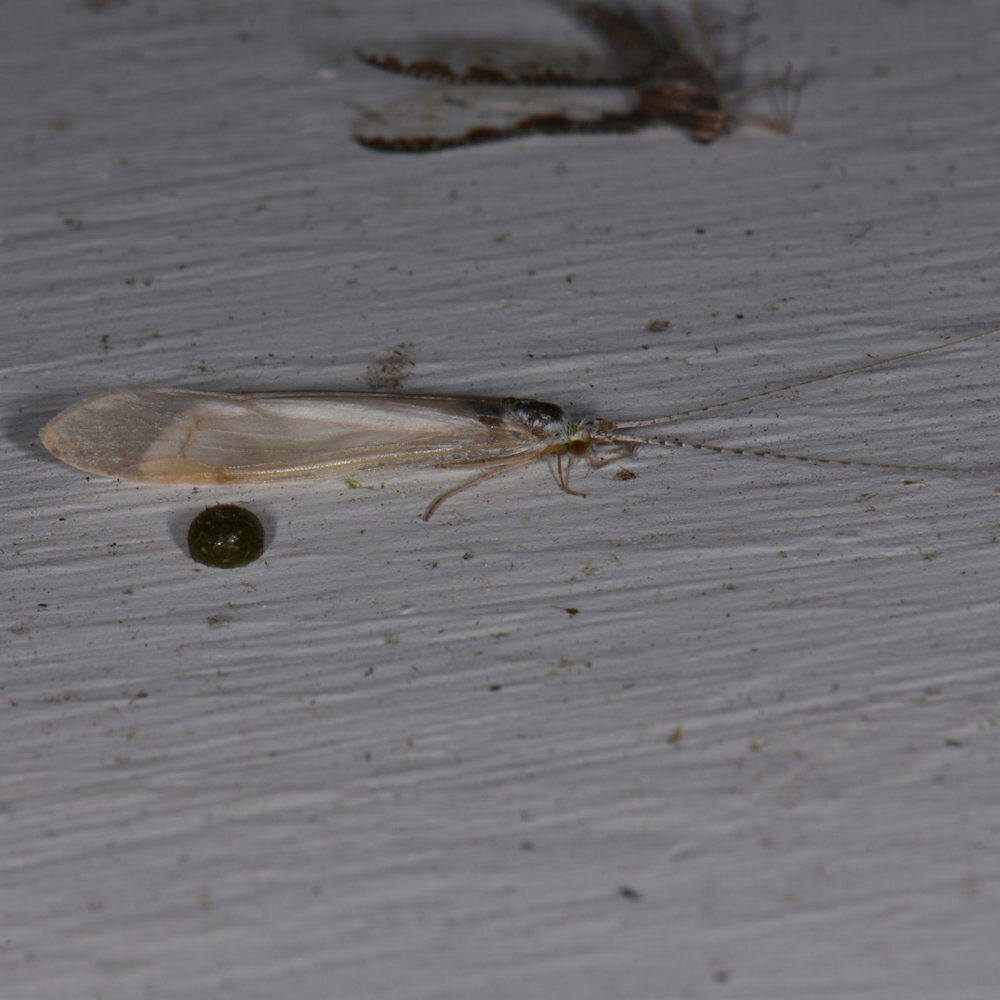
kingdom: Animalia
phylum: Arthropoda
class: Insecta
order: Trichoptera
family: Leptoceridae
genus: Nectopsyche
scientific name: Nectopsyche albida
